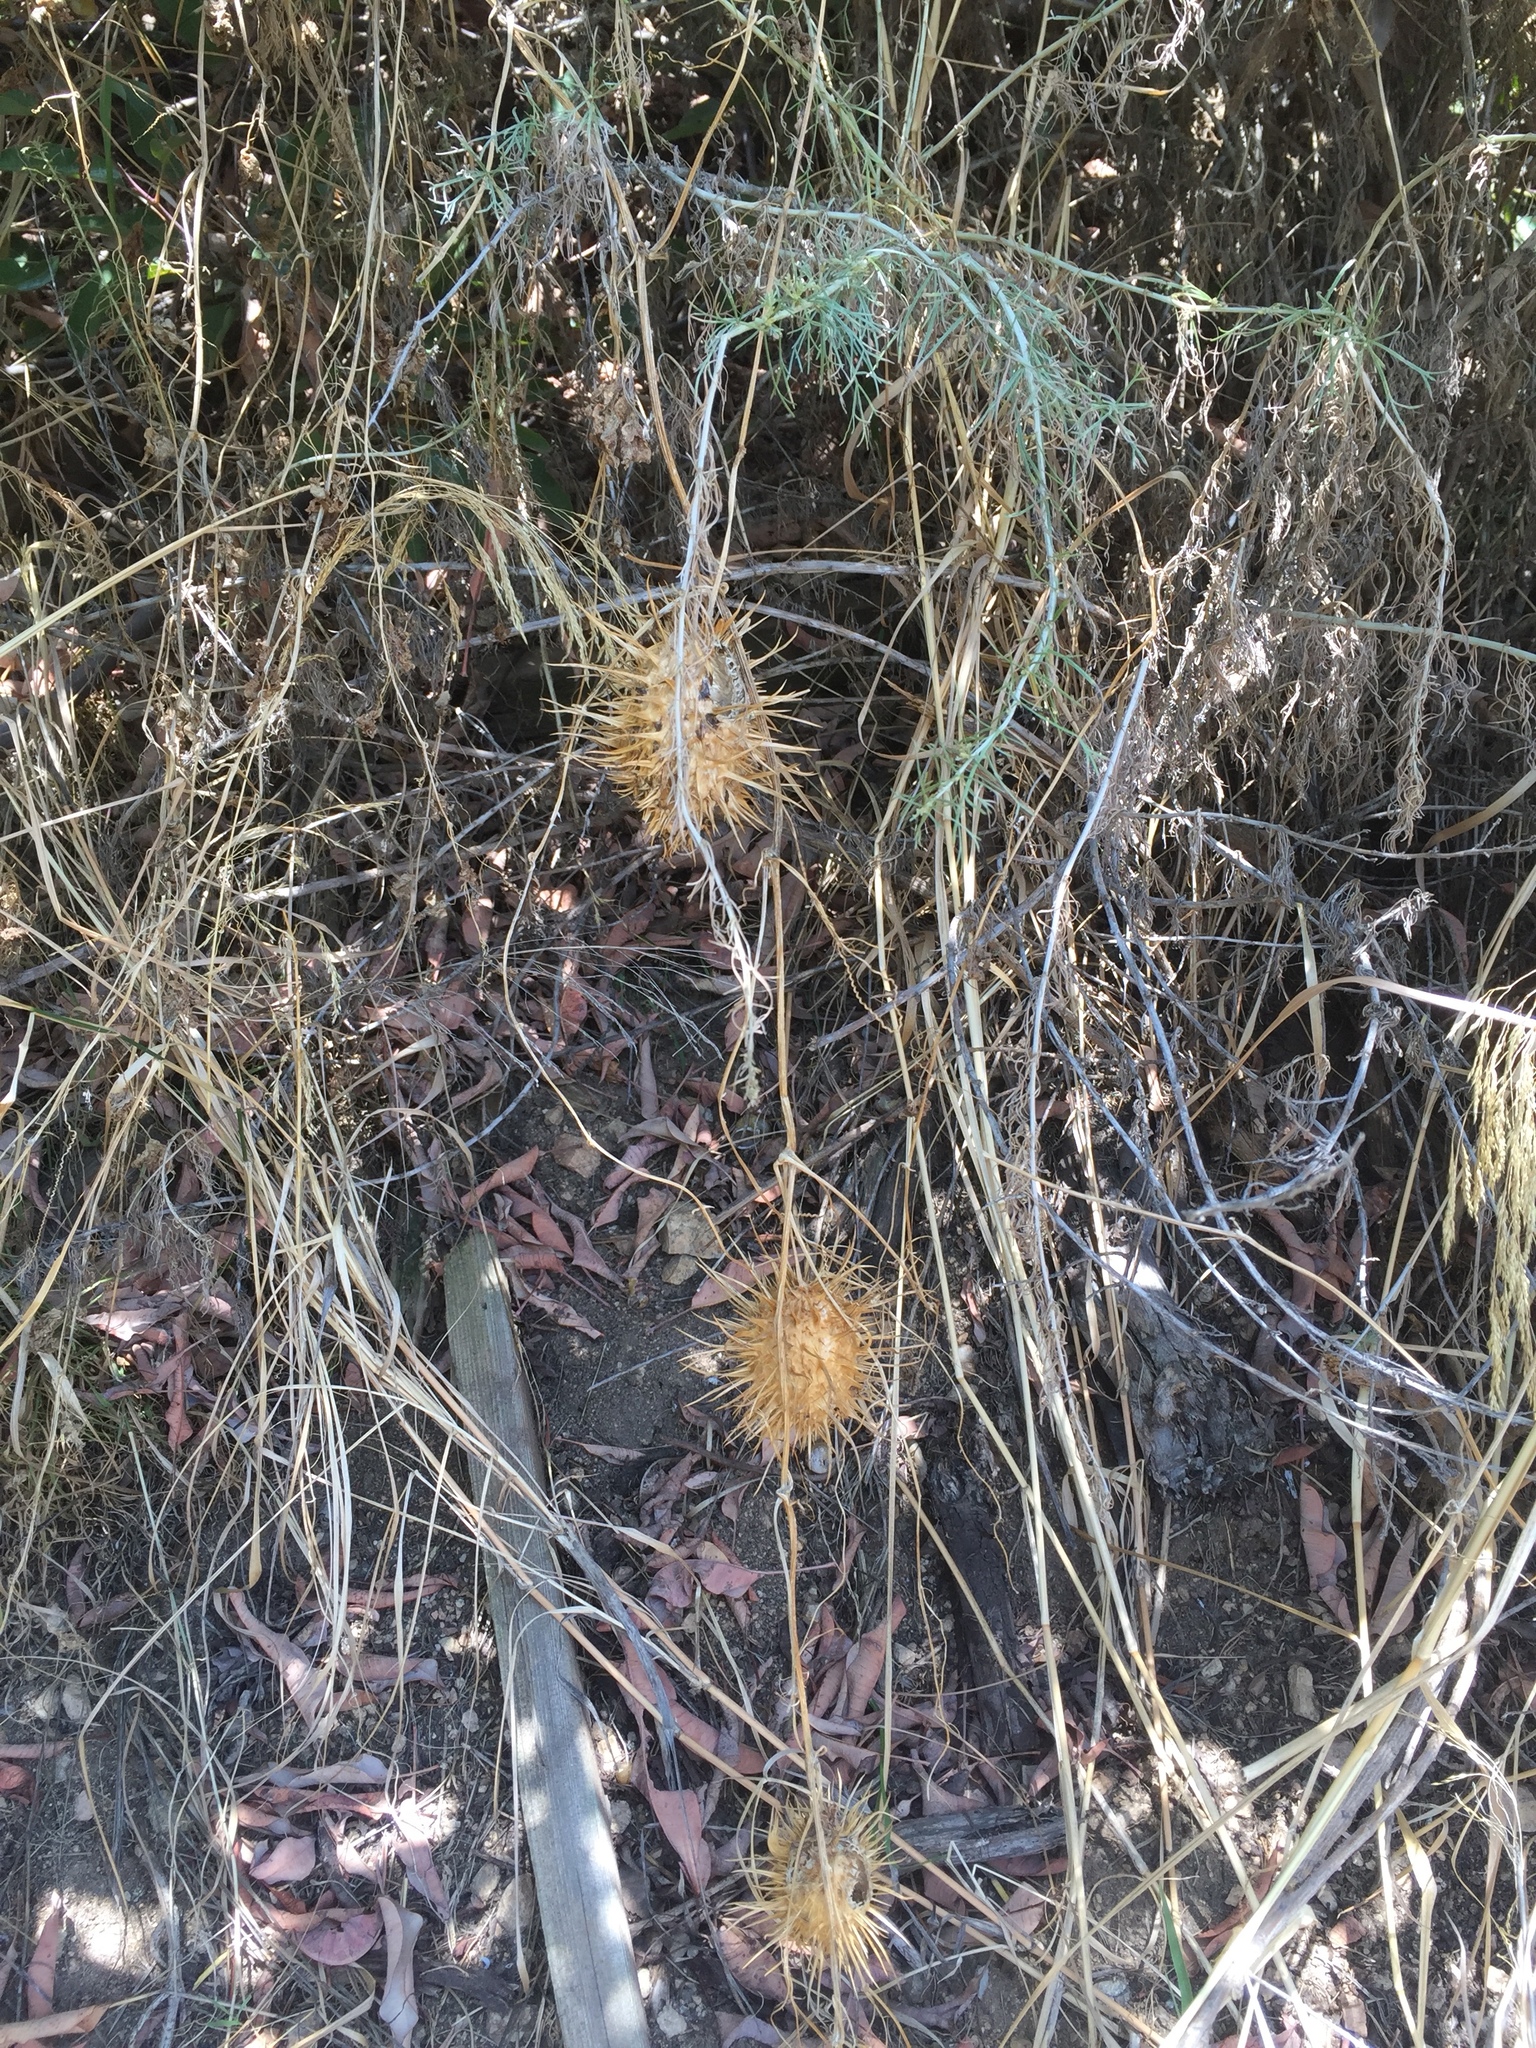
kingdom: Plantae
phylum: Tracheophyta
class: Magnoliopsida
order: Cucurbitales
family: Cucurbitaceae
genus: Marah
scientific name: Marah macrocarpa
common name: Cucamonga manroot
